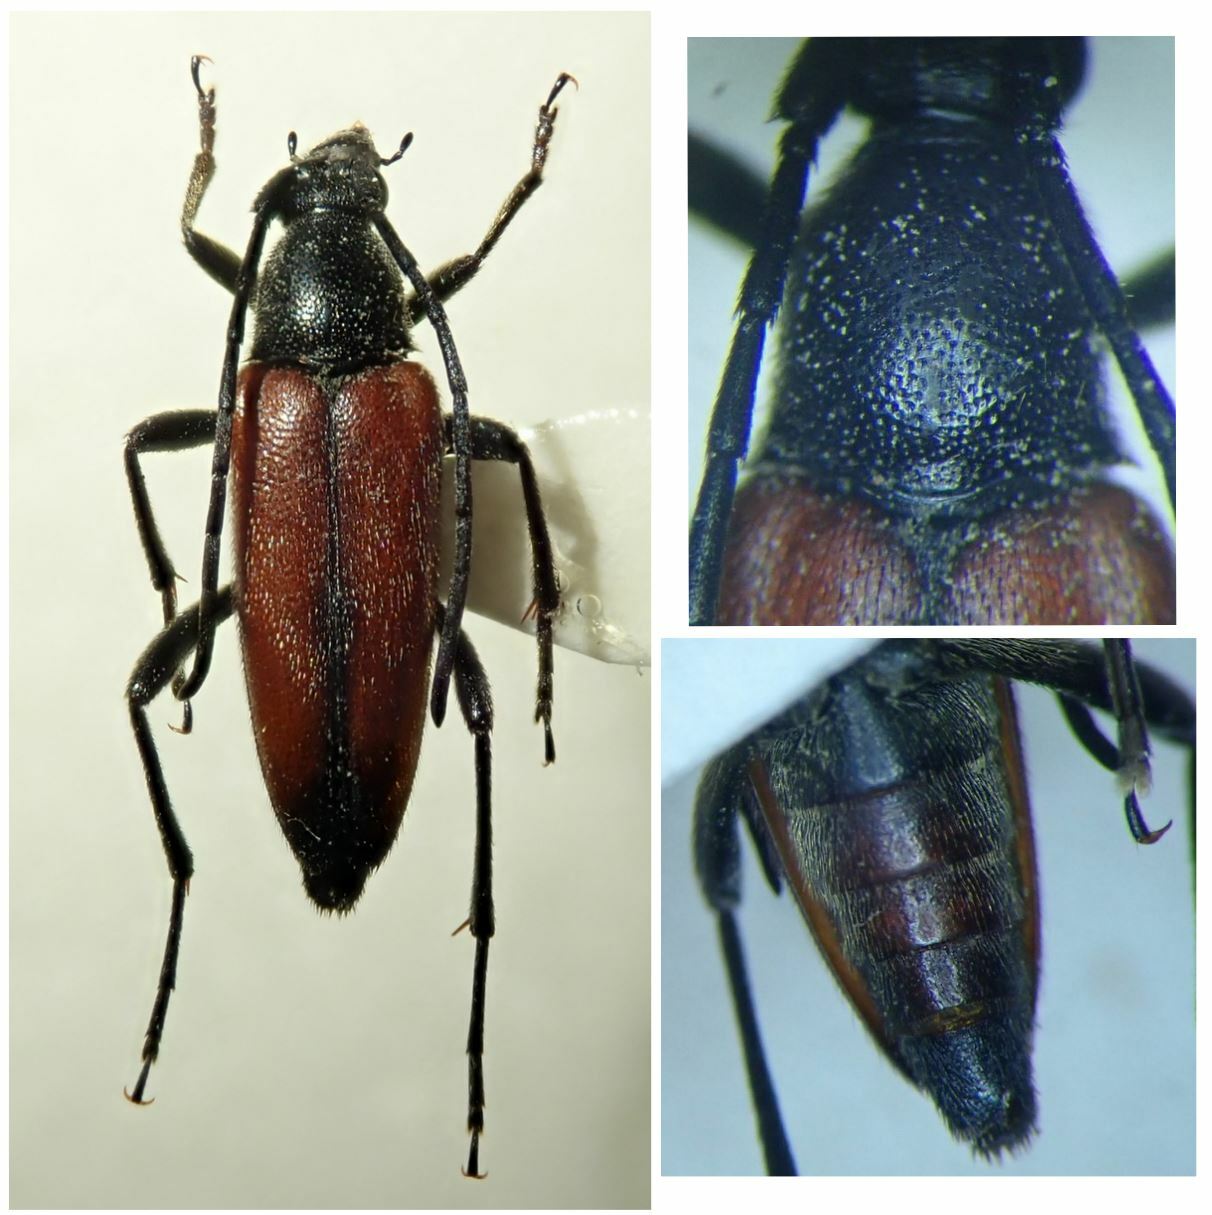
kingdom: Animalia
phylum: Arthropoda
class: Insecta
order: Coleoptera
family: Cerambycidae
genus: Stenurella
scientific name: Stenurella bifasciata
